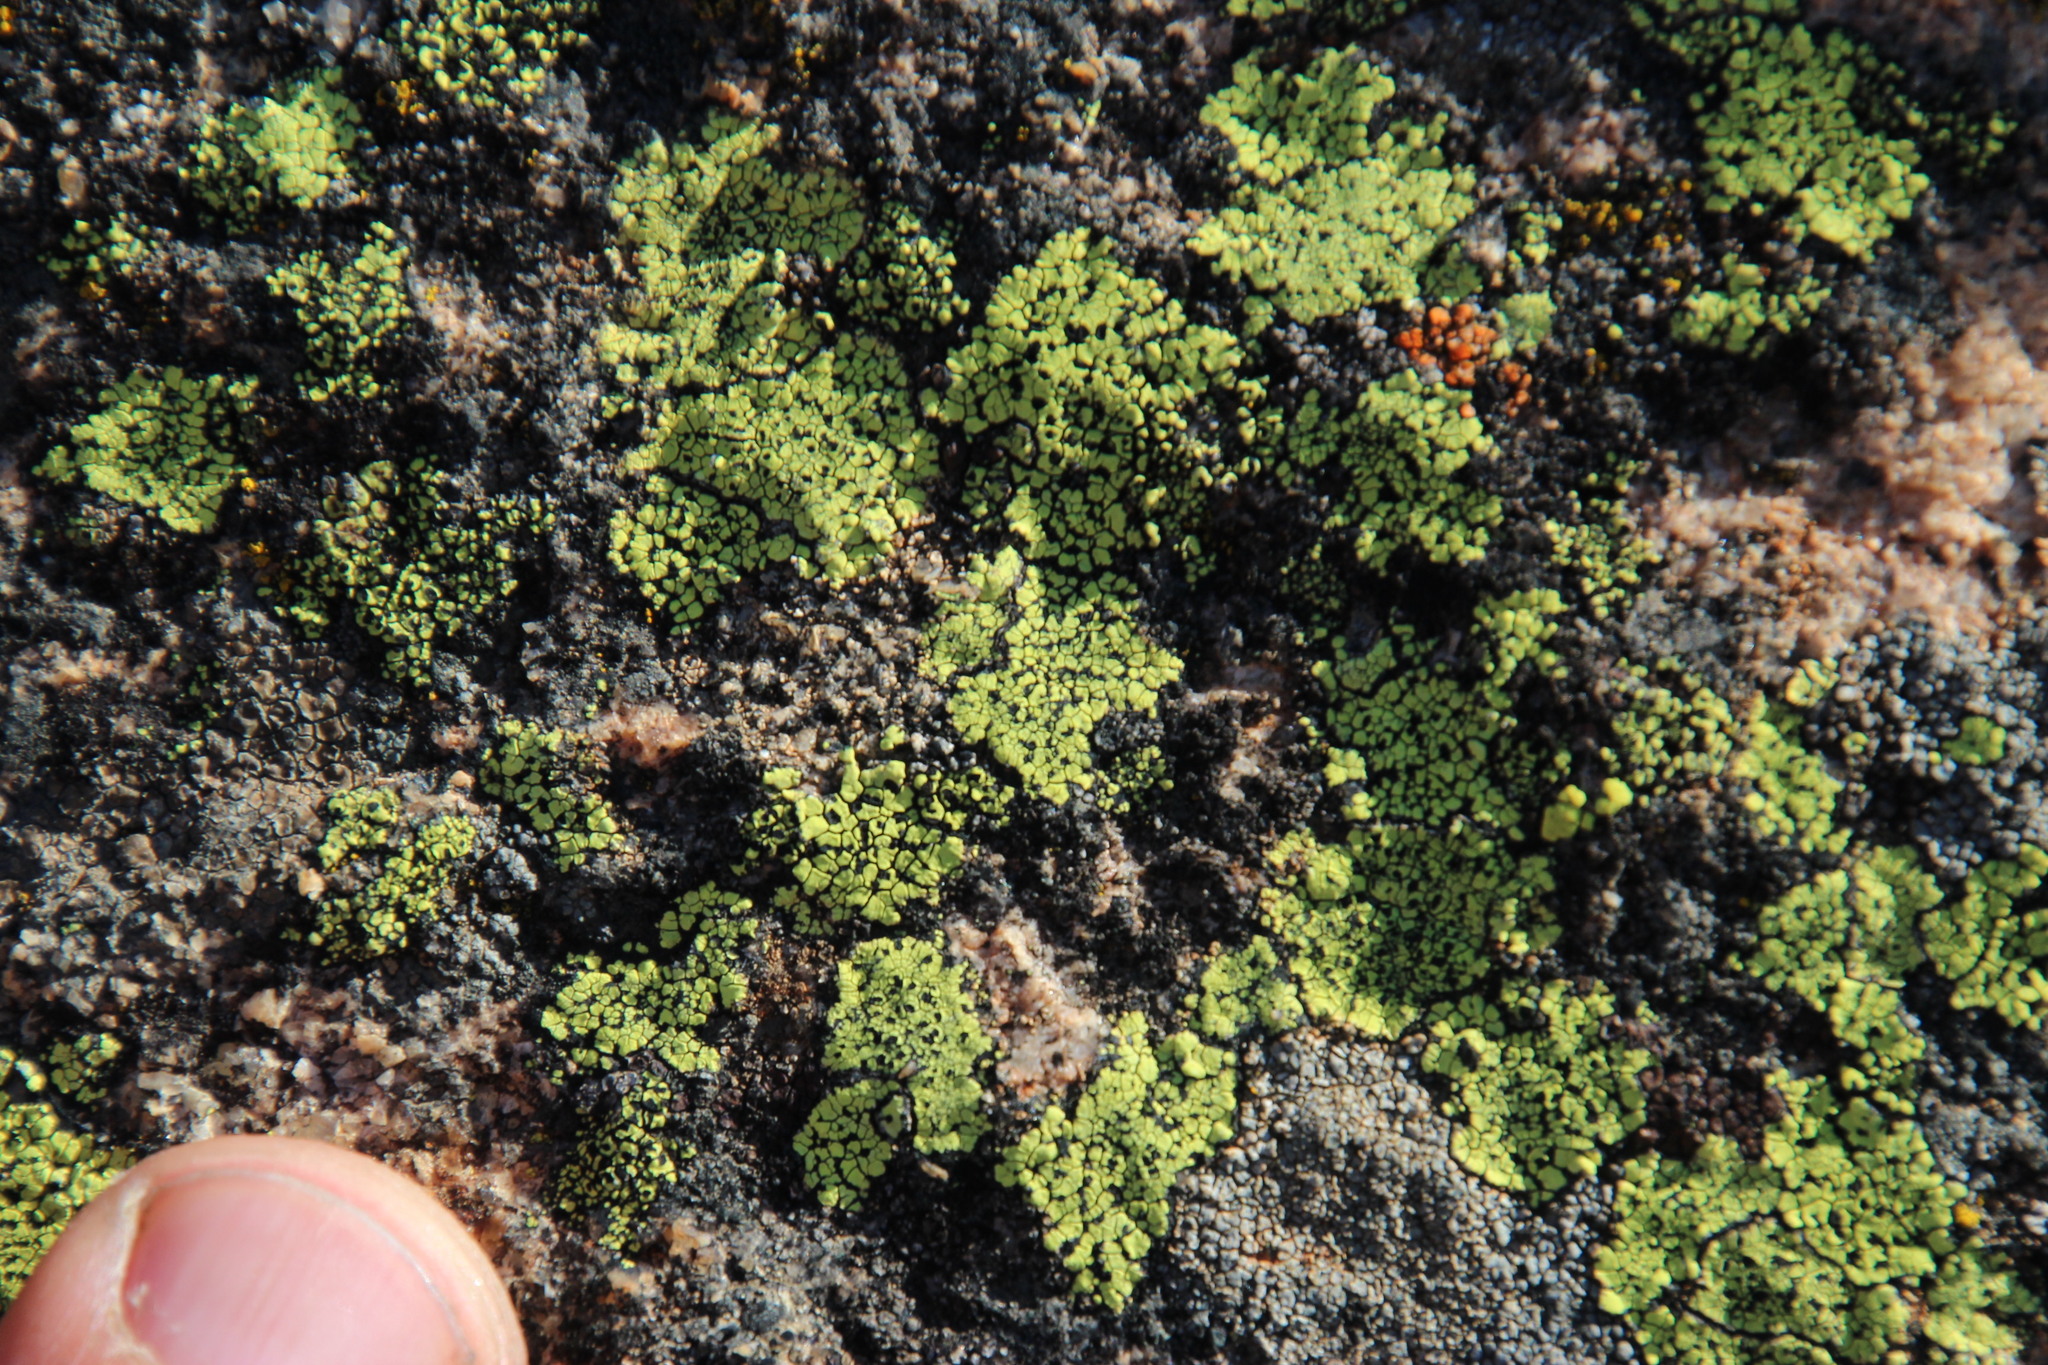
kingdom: Fungi
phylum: Ascomycota
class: Lecanoromycetes
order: Rhizocarpales
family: Rhizocarpaceae
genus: Rhizocarpon
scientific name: Rhizocarpon lecanorinum
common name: Crescent map lichen
